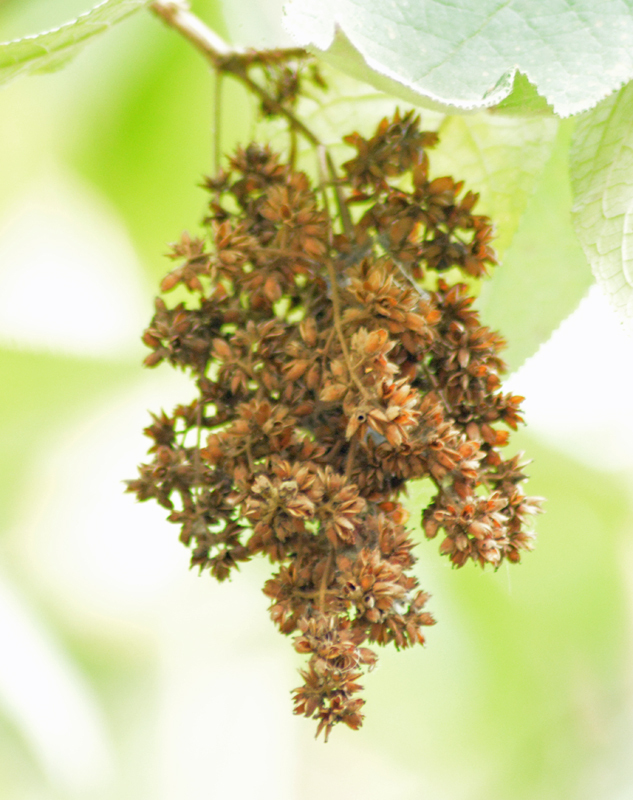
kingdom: Plantae
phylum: Tracheophyta
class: Magnoliopsida
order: Lamiales
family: Scrophulariaceae
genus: Buddleja
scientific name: Buddleja cordata
